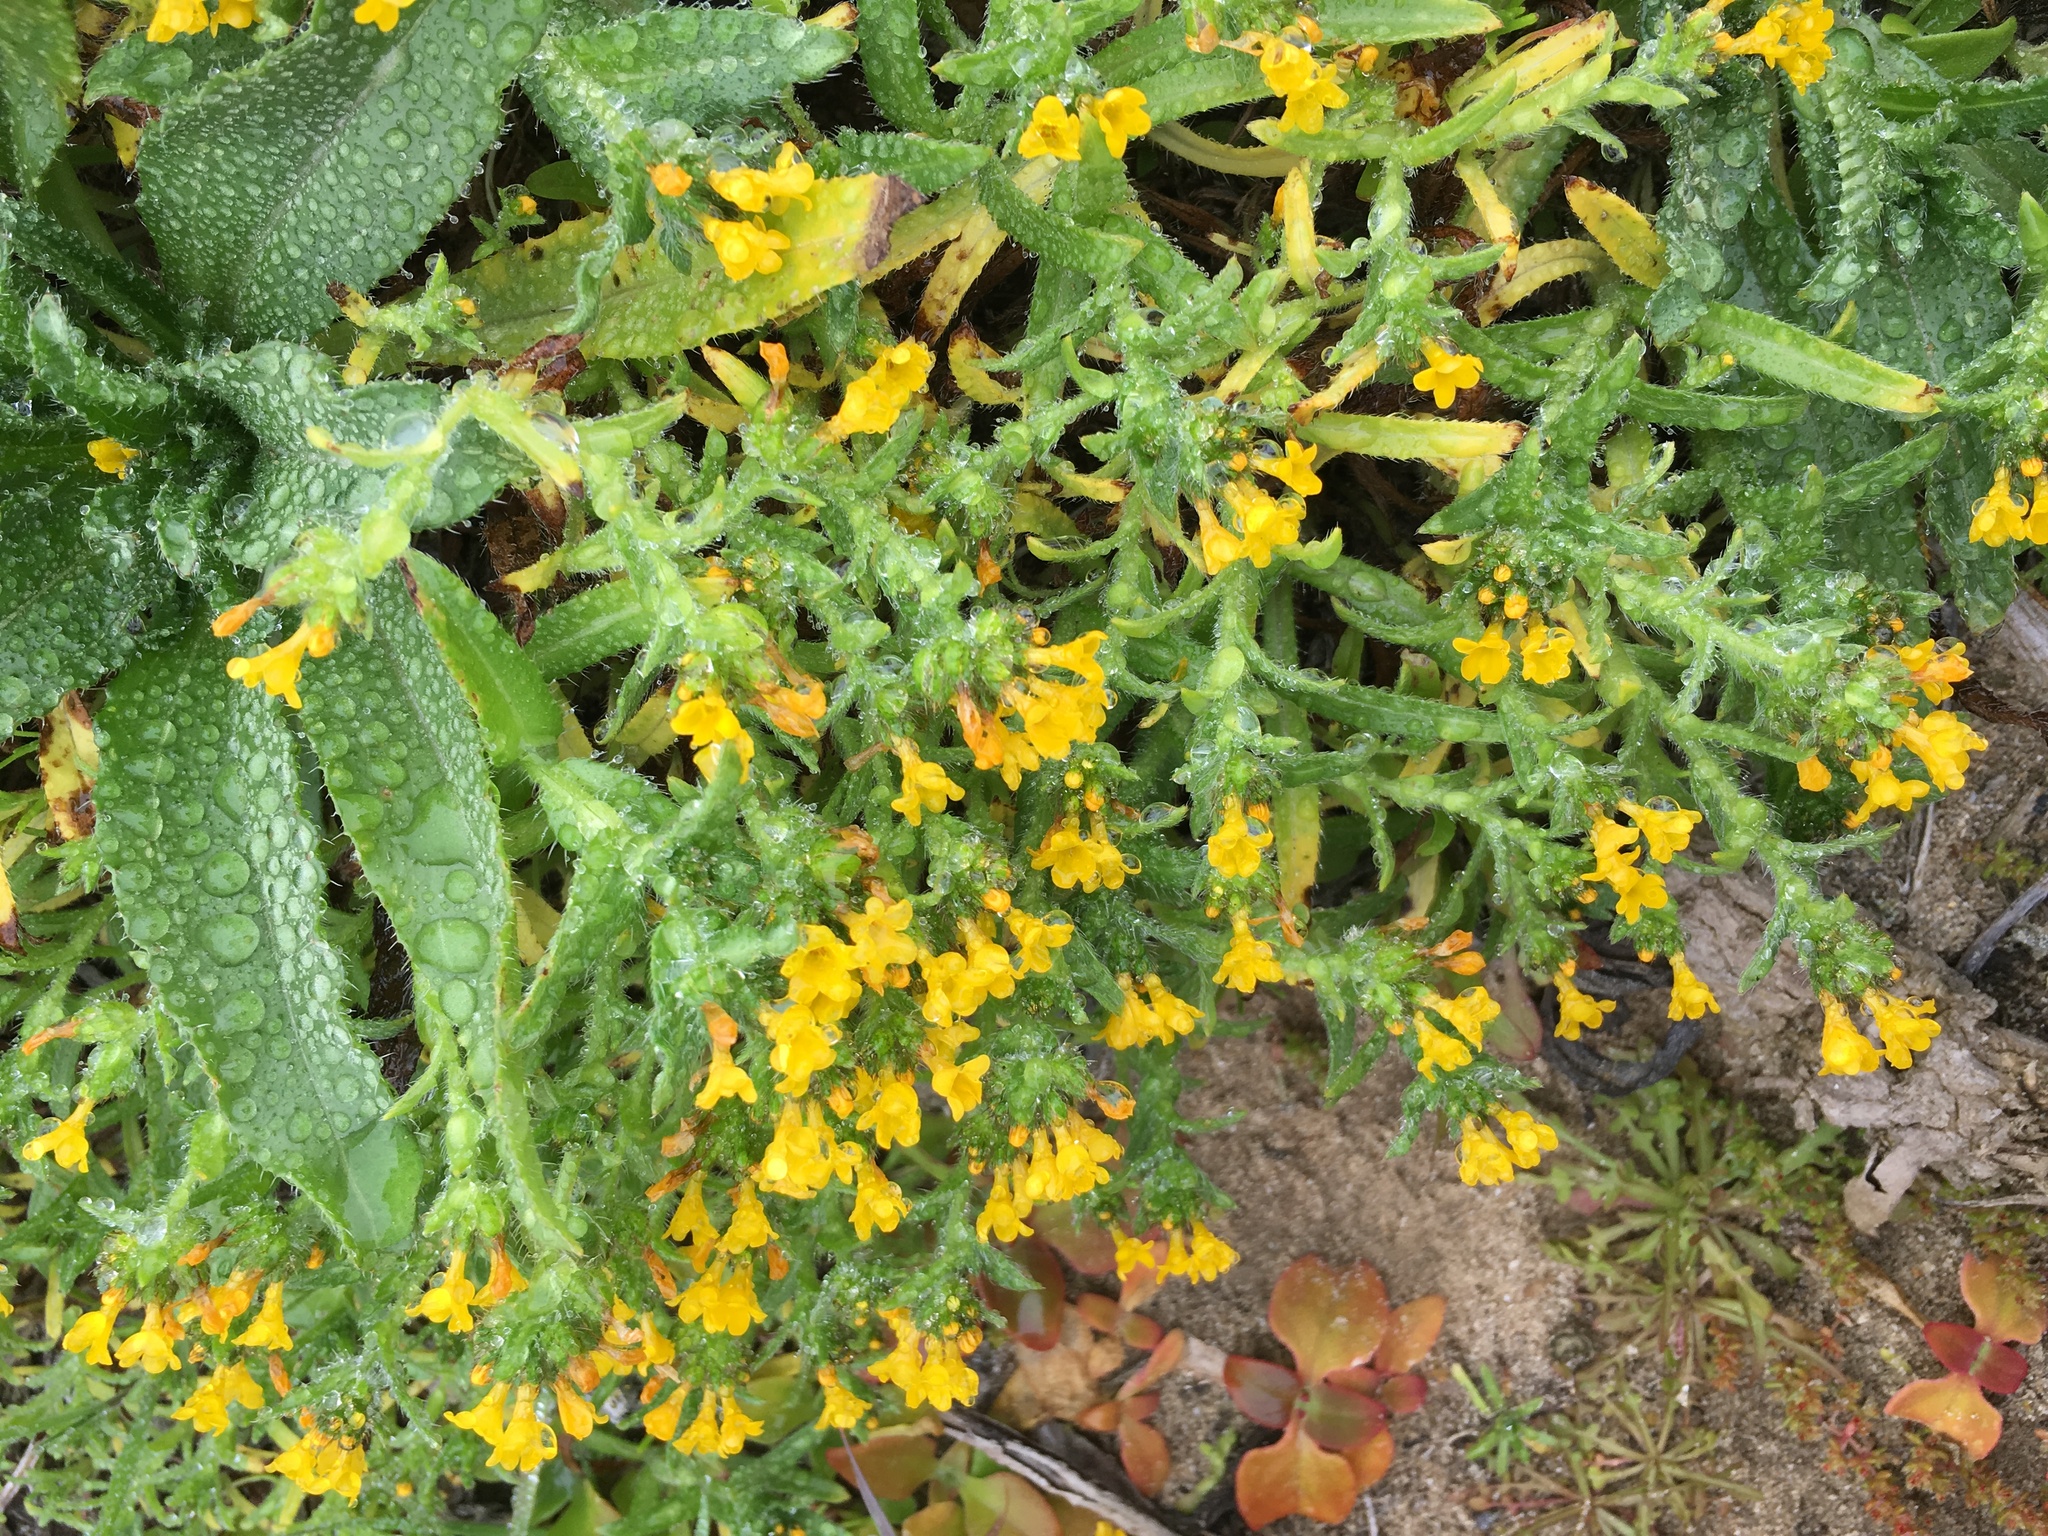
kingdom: Plantae
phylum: Tracheophyta
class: Magnoliopsida
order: Boraginales
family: Boraginaceae
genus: Amsinckia
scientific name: Amsinckia spectabilis
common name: Seaside fiddleneck
